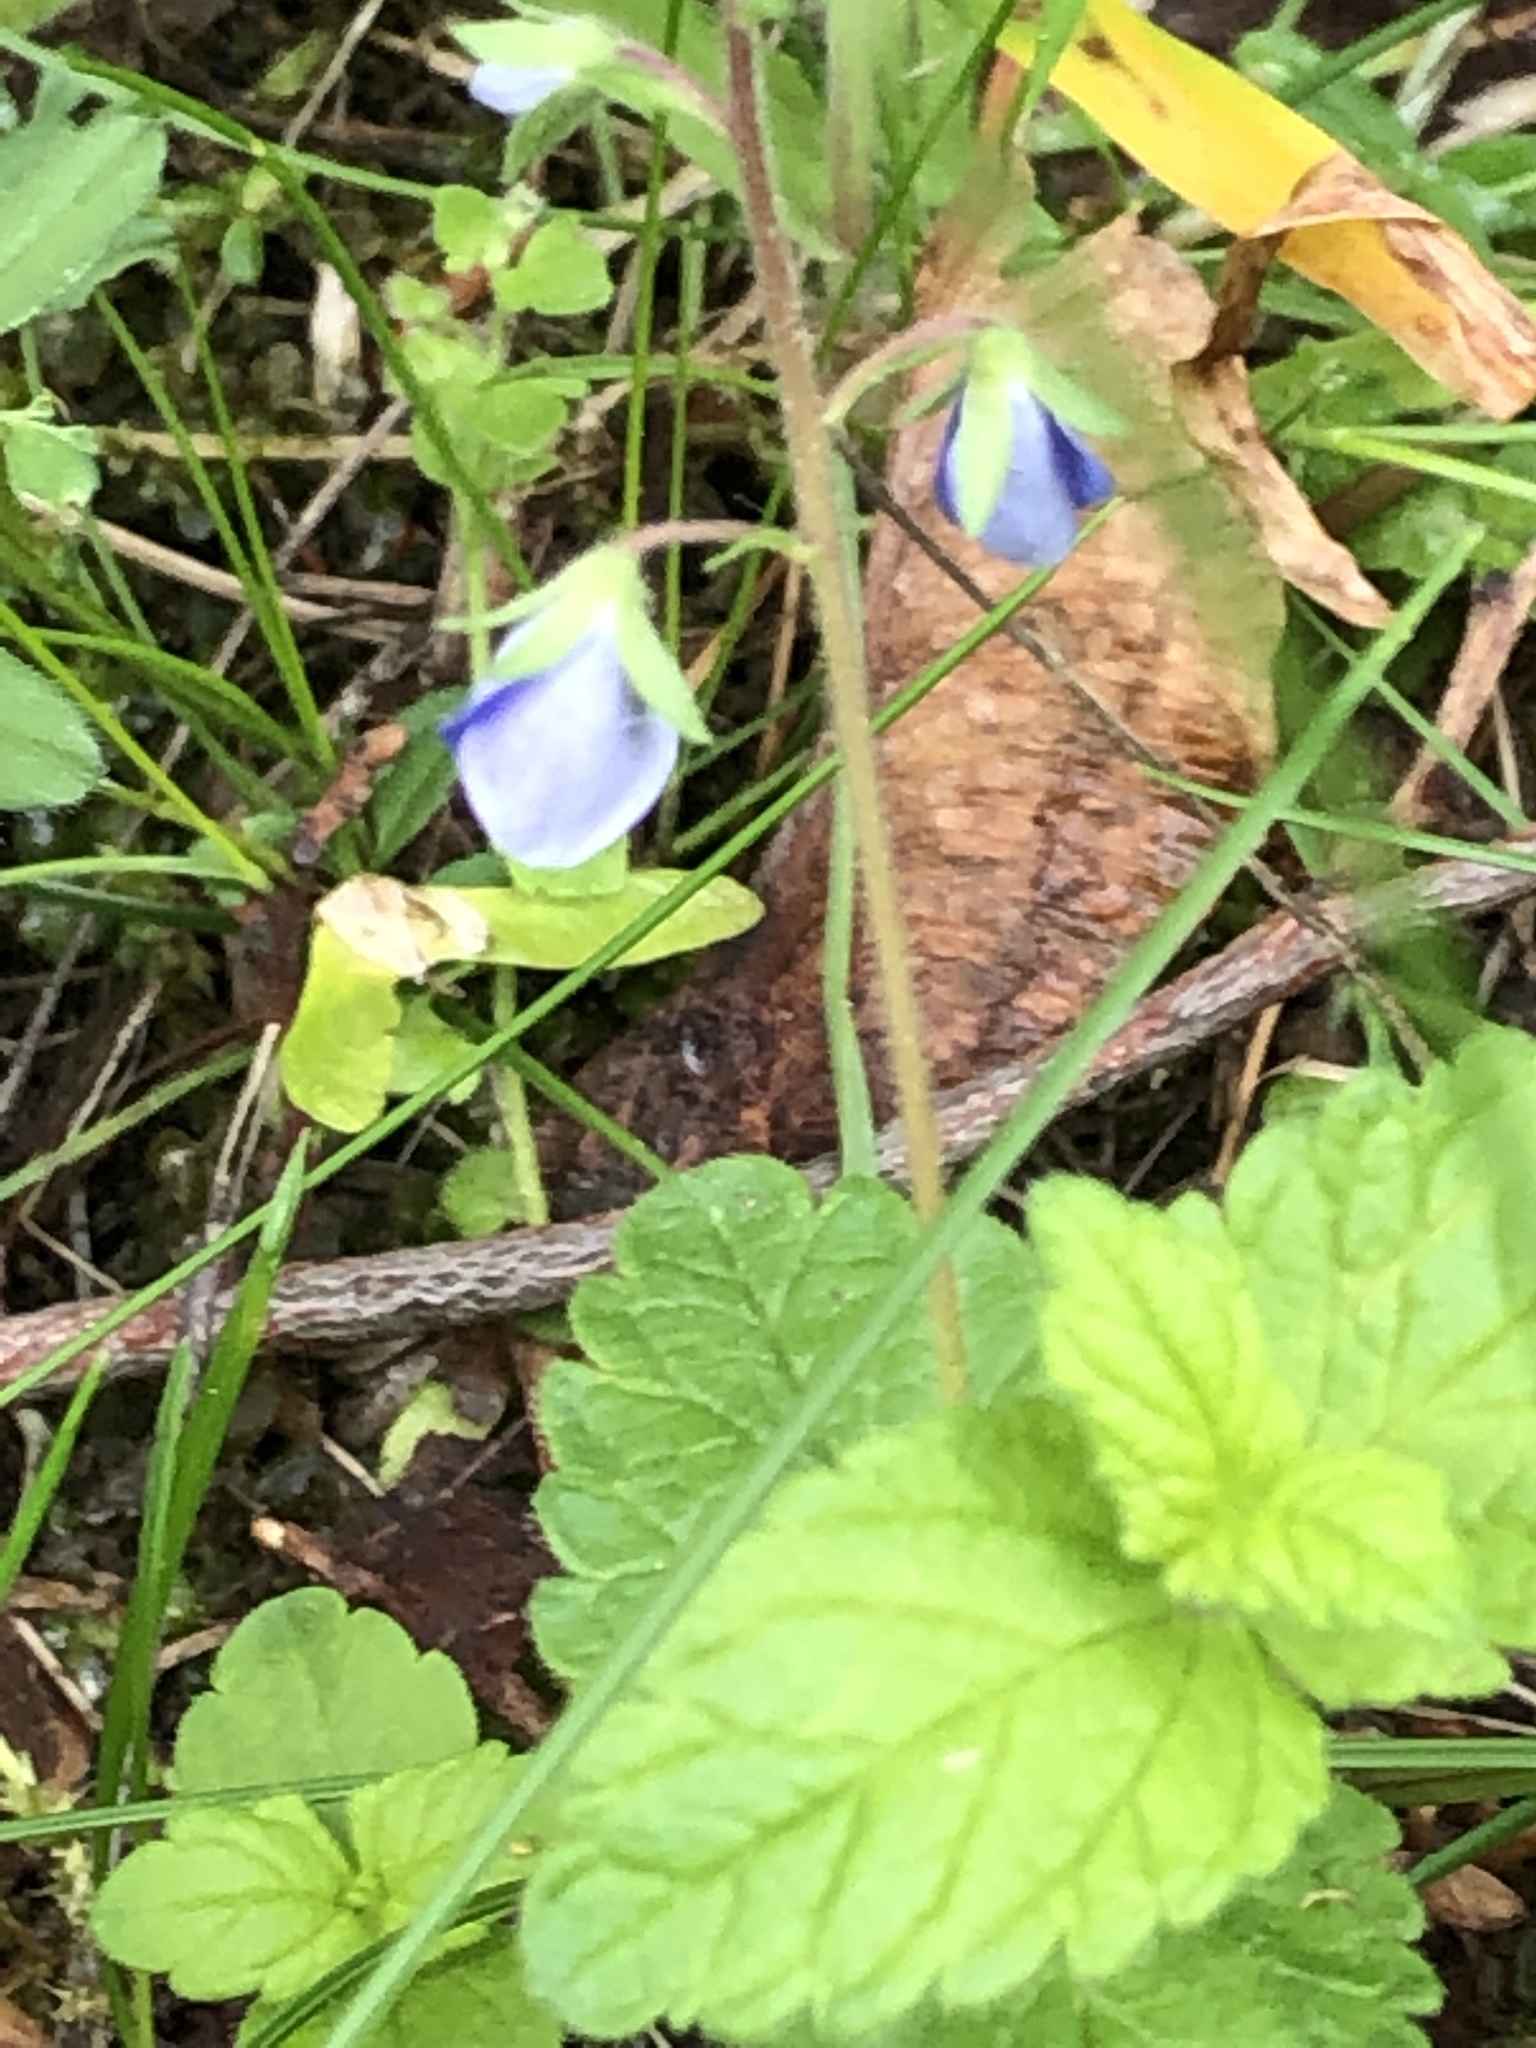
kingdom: Plantae
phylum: Tracheophyta
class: Magnoliopsida
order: Lamiales
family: Plantaginaceae
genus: Veronica
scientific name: Veronica chamaedrys
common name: Germander speedwell
